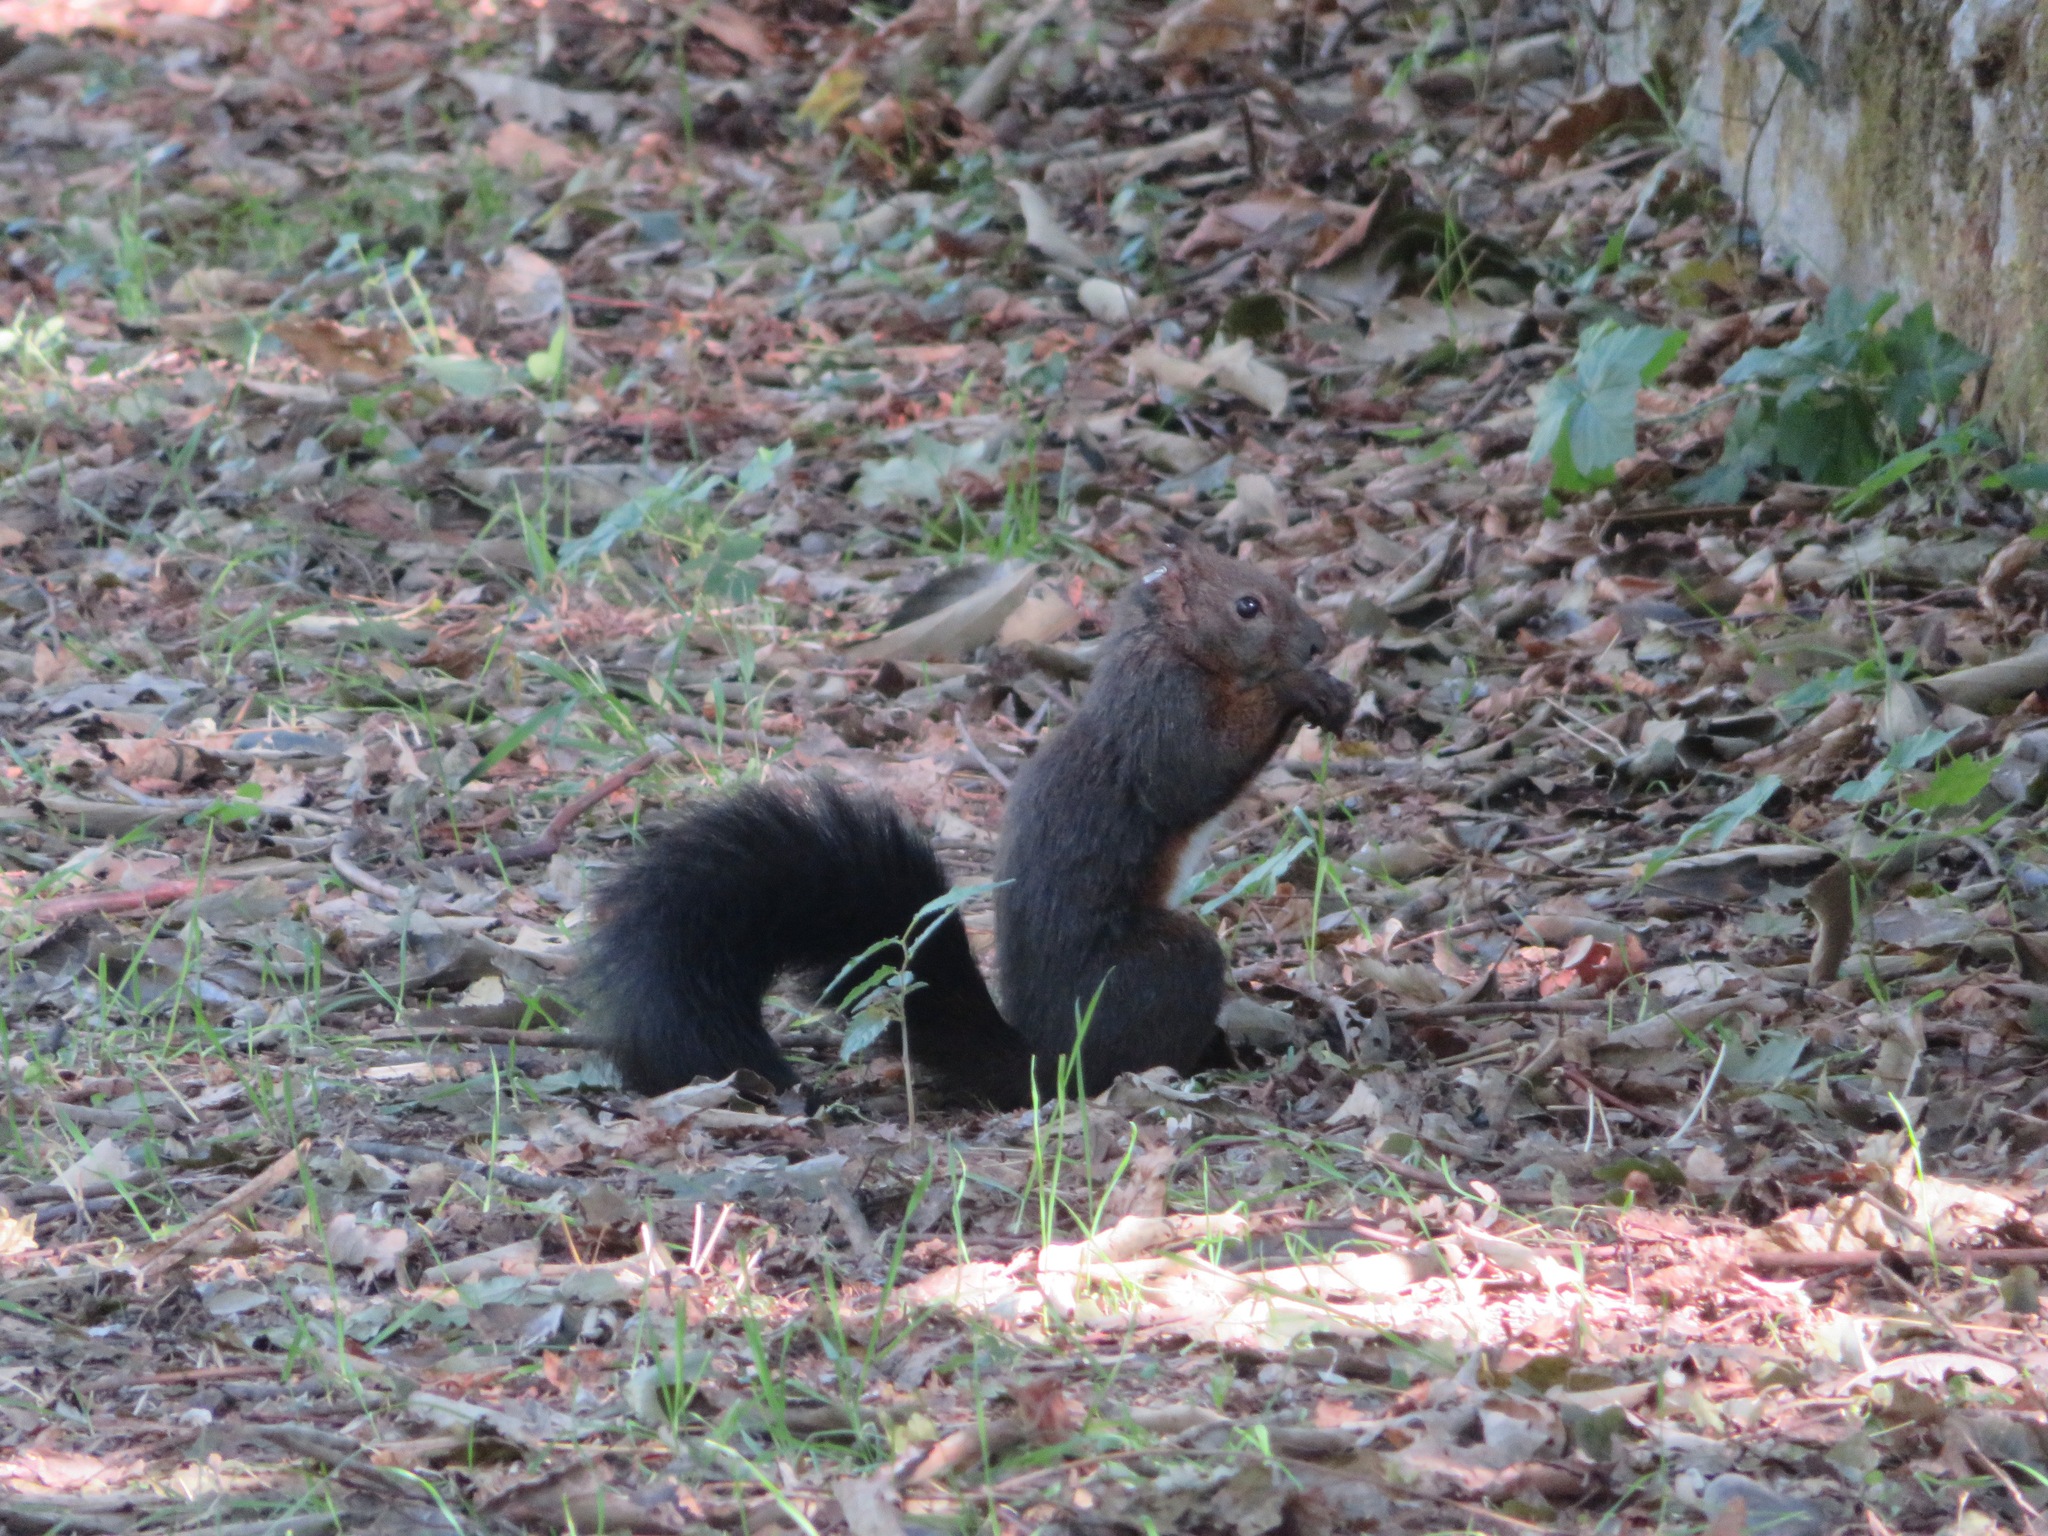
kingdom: Animalia
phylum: Chordata
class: Mammalia
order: Rodentia
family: Sciuridae
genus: Sciurus
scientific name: Sciurus vulgaris
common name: Eurasian red squirrel
